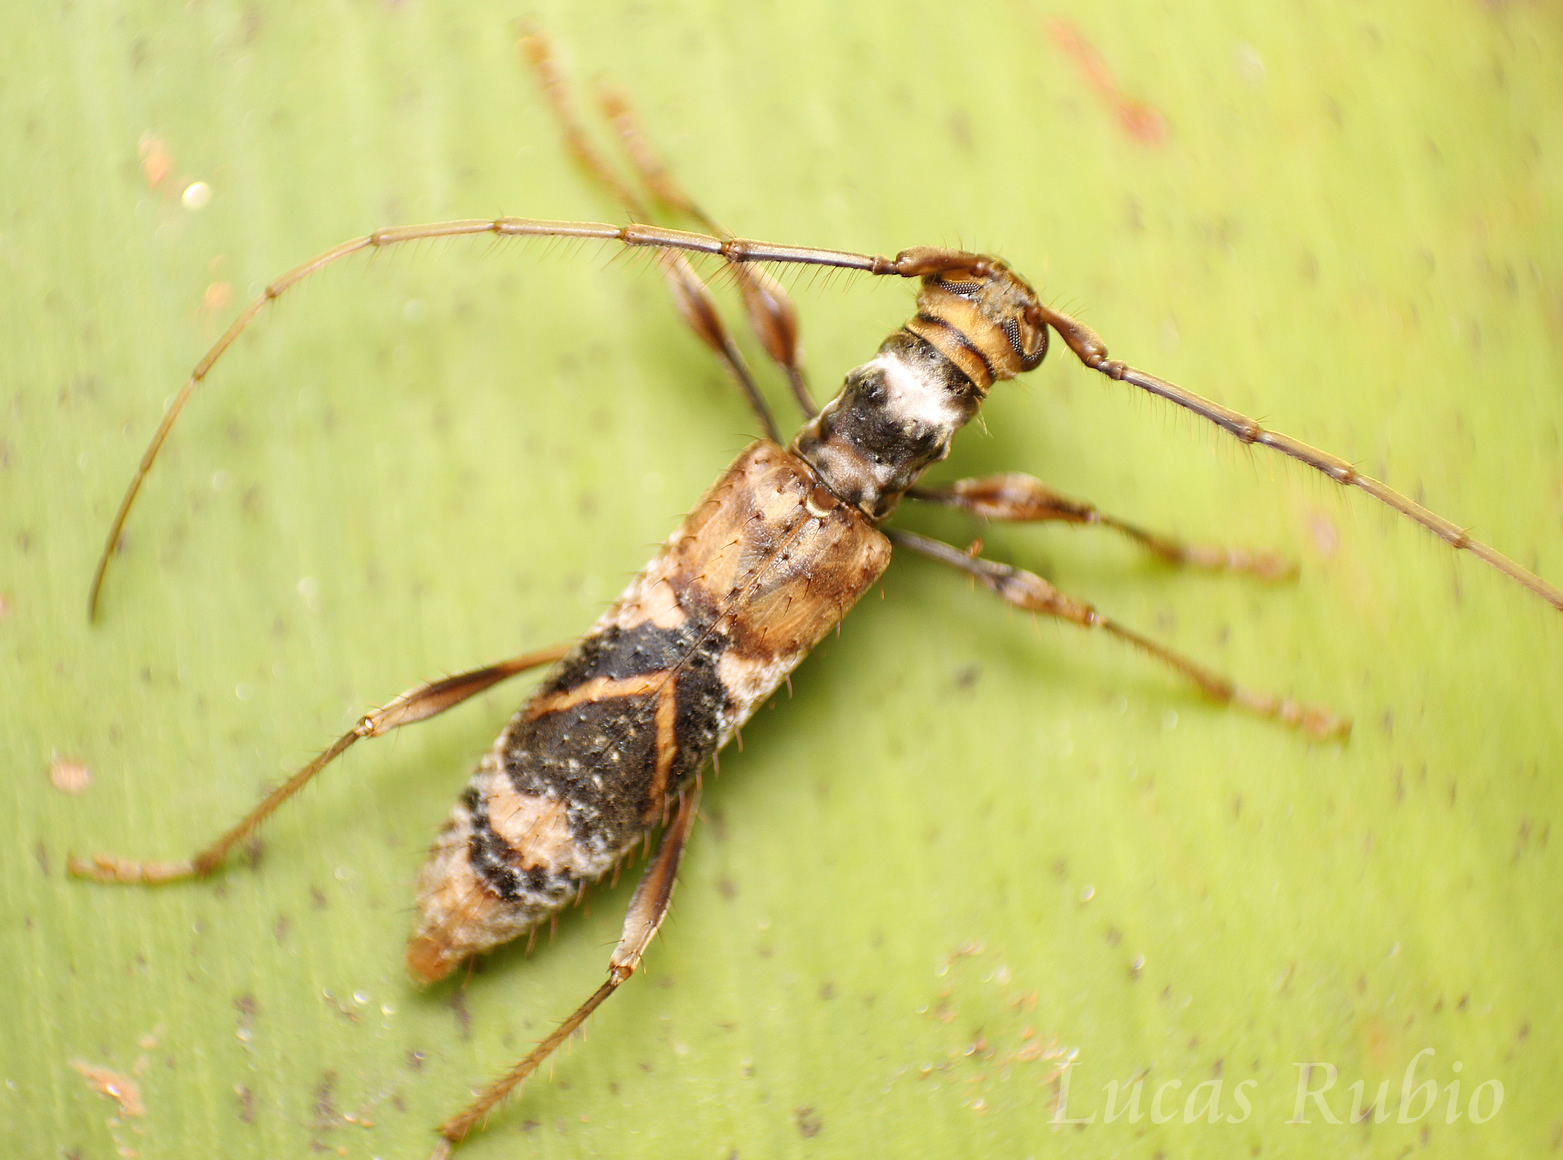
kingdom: Animalia
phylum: Arthropoda
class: Insecta
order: Coleoptera
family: Cerambycidae
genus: Compsibidion
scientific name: Compsibidion sommeri
